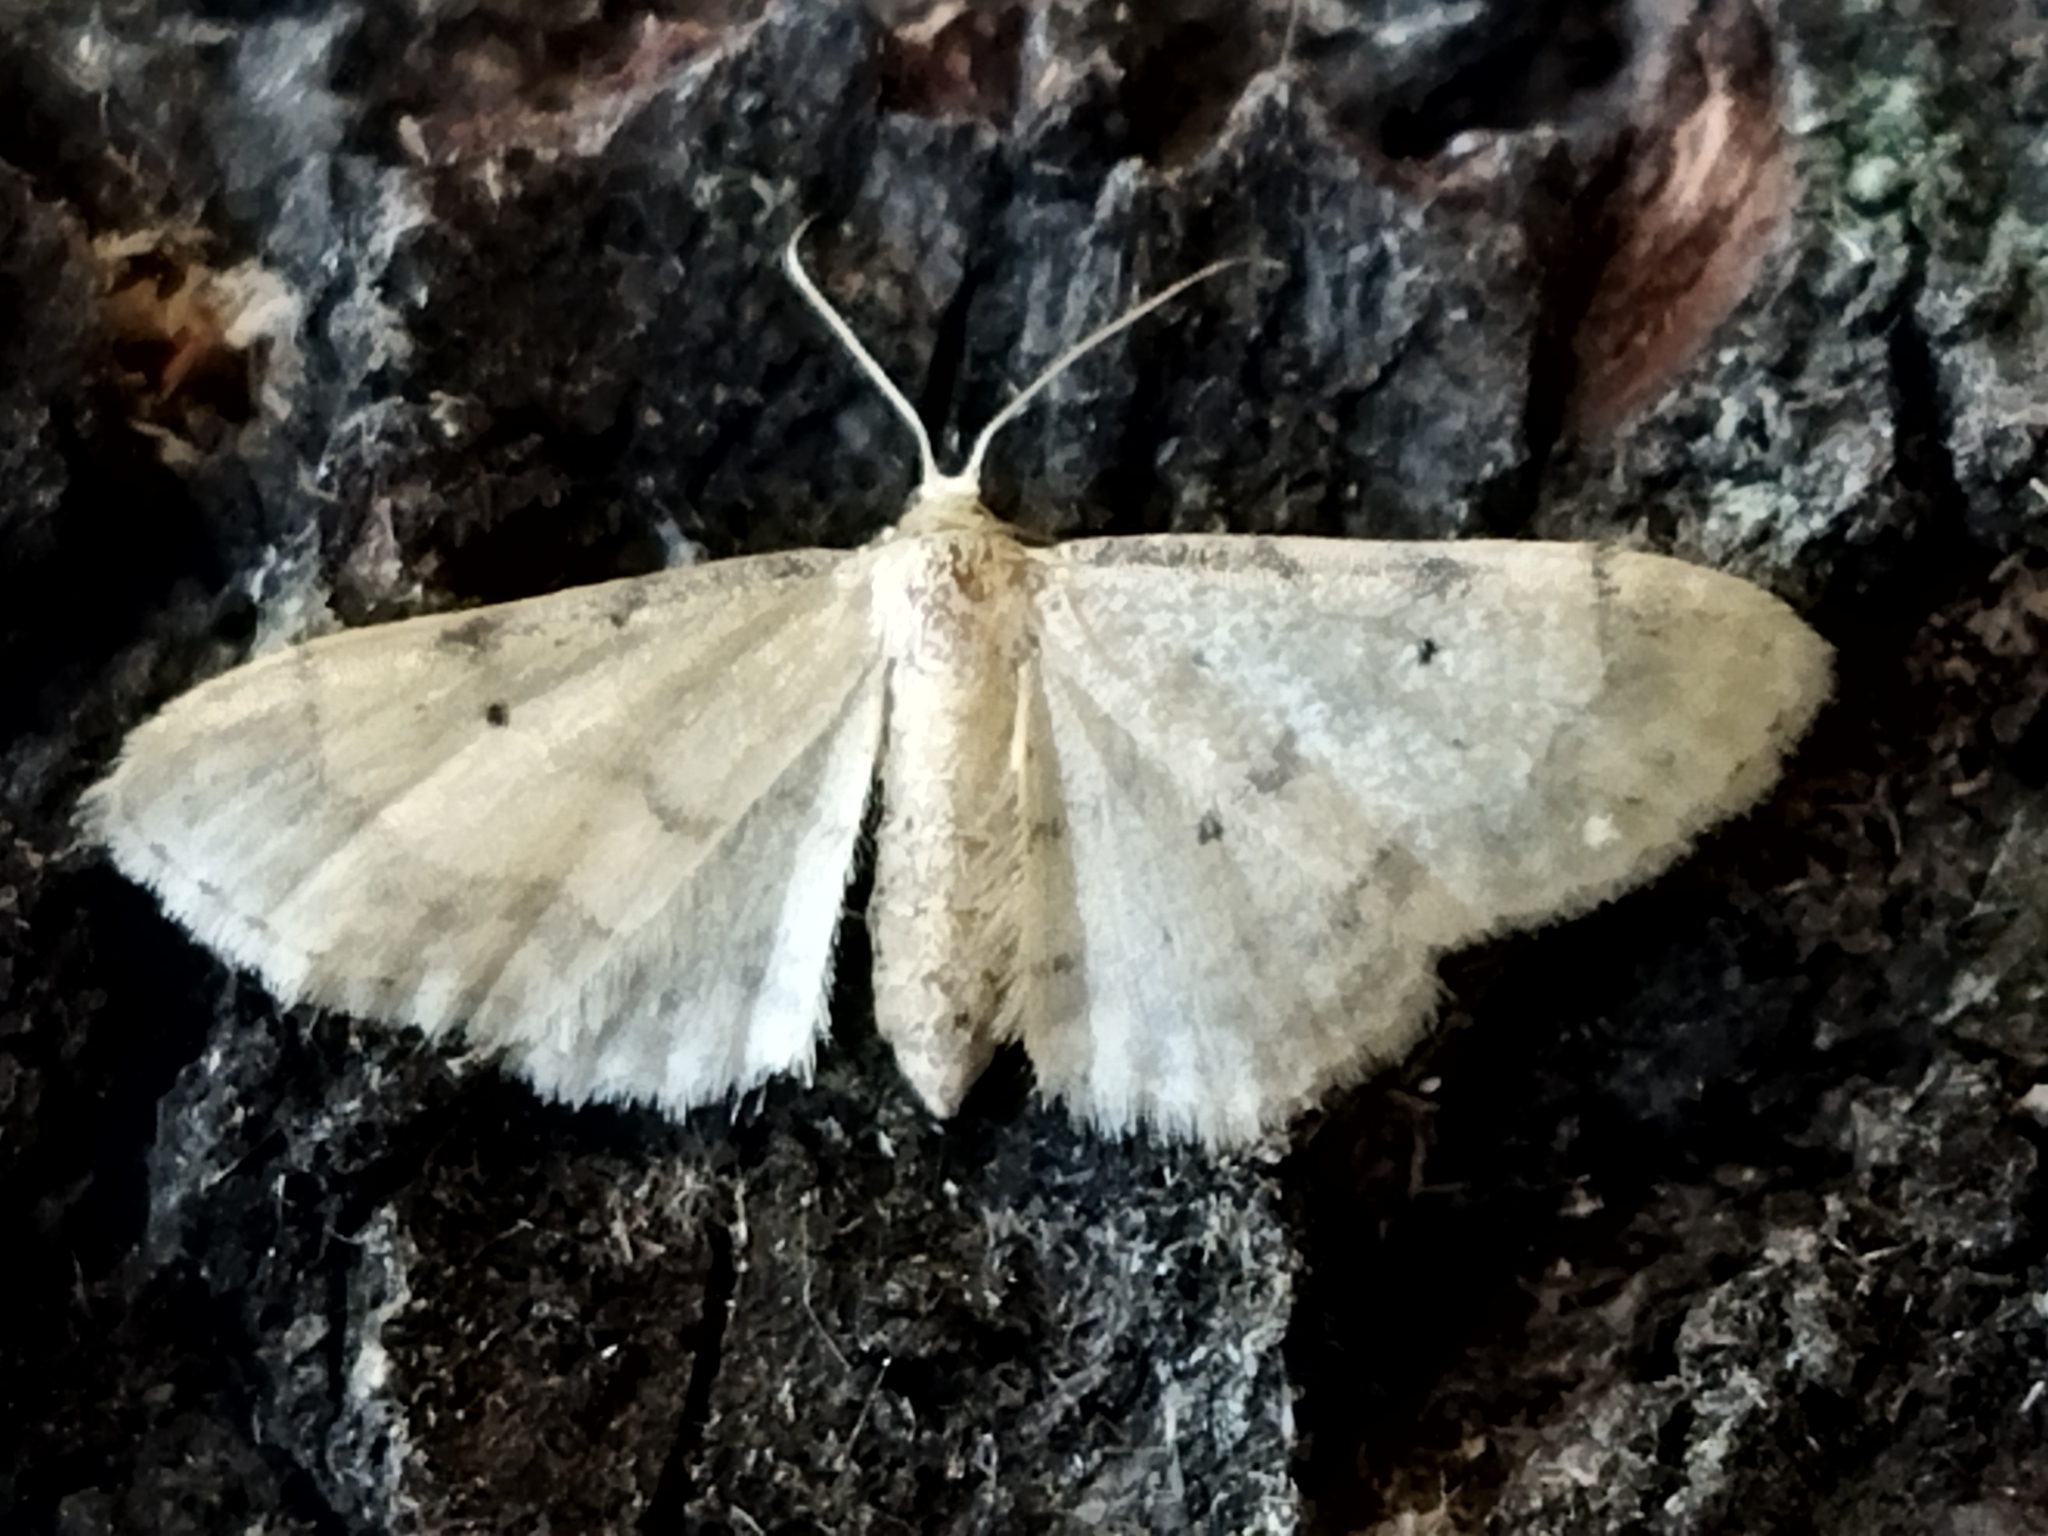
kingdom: Animalia
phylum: Arthropoda
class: Insecta
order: Lepidoptera
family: Geometridae
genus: Idaea
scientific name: Idaea politaria
